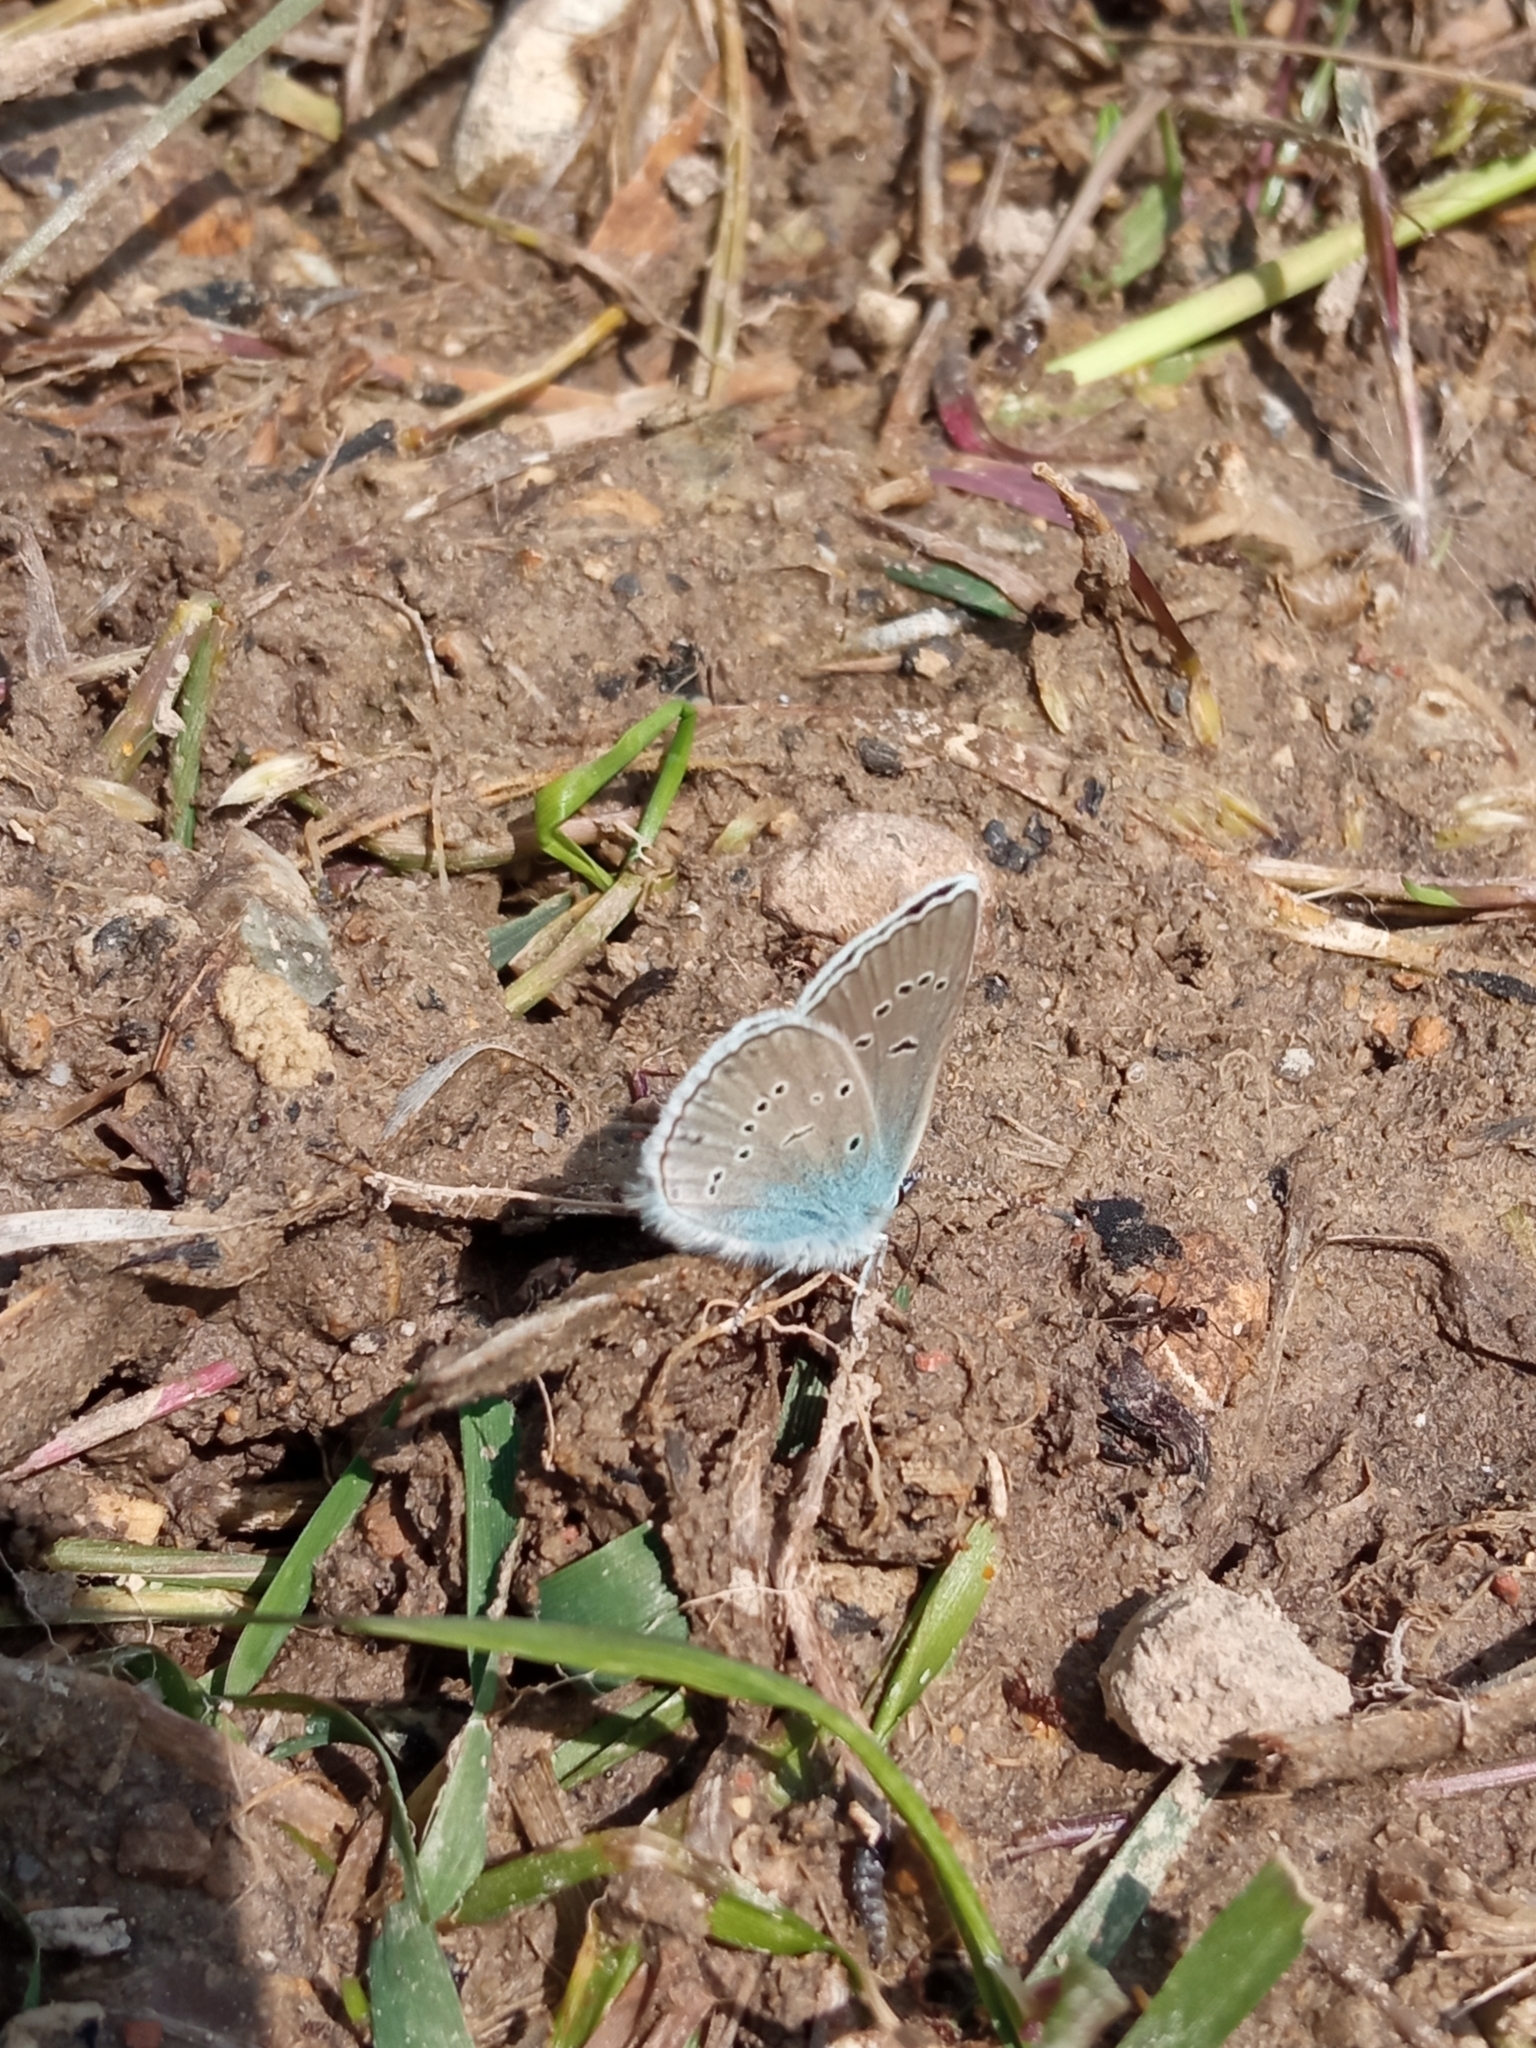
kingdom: Animalia
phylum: Arthropoda
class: Insecta
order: Lepidoptera
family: Lycaenidae
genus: Cyaniris
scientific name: Cyaniris semiargus
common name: Mazarine blue
